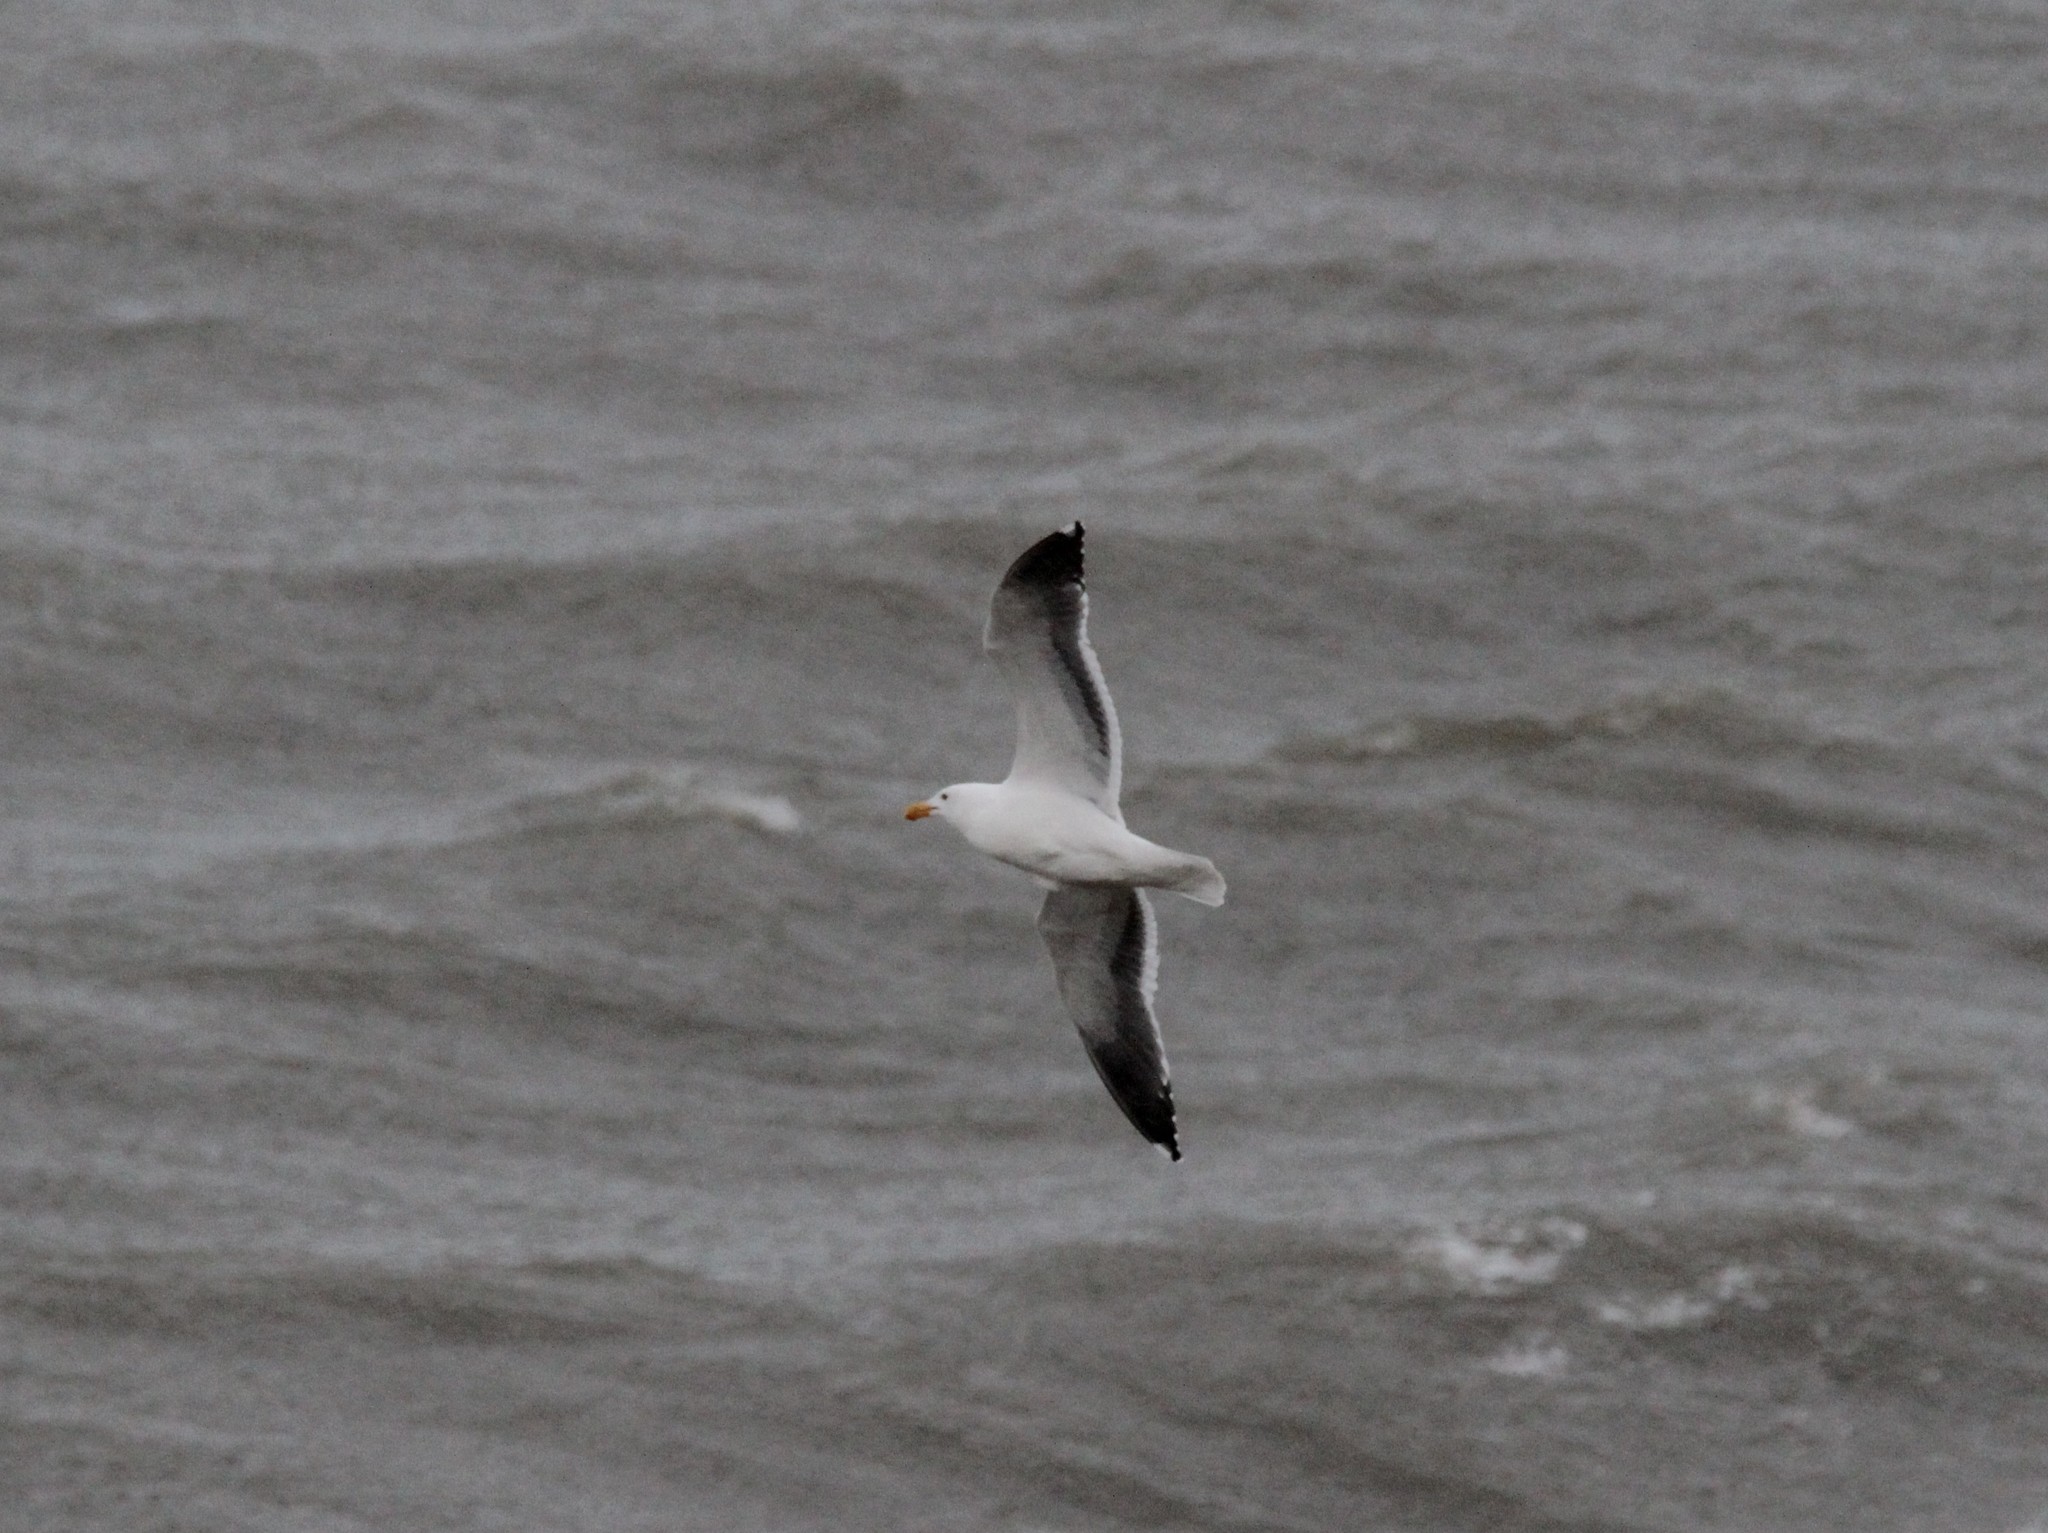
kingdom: Animalia
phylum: Chordata
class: Aves
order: Charadriiformes
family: Laridae
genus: Larus
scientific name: Larus occidentalis
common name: Western gull
